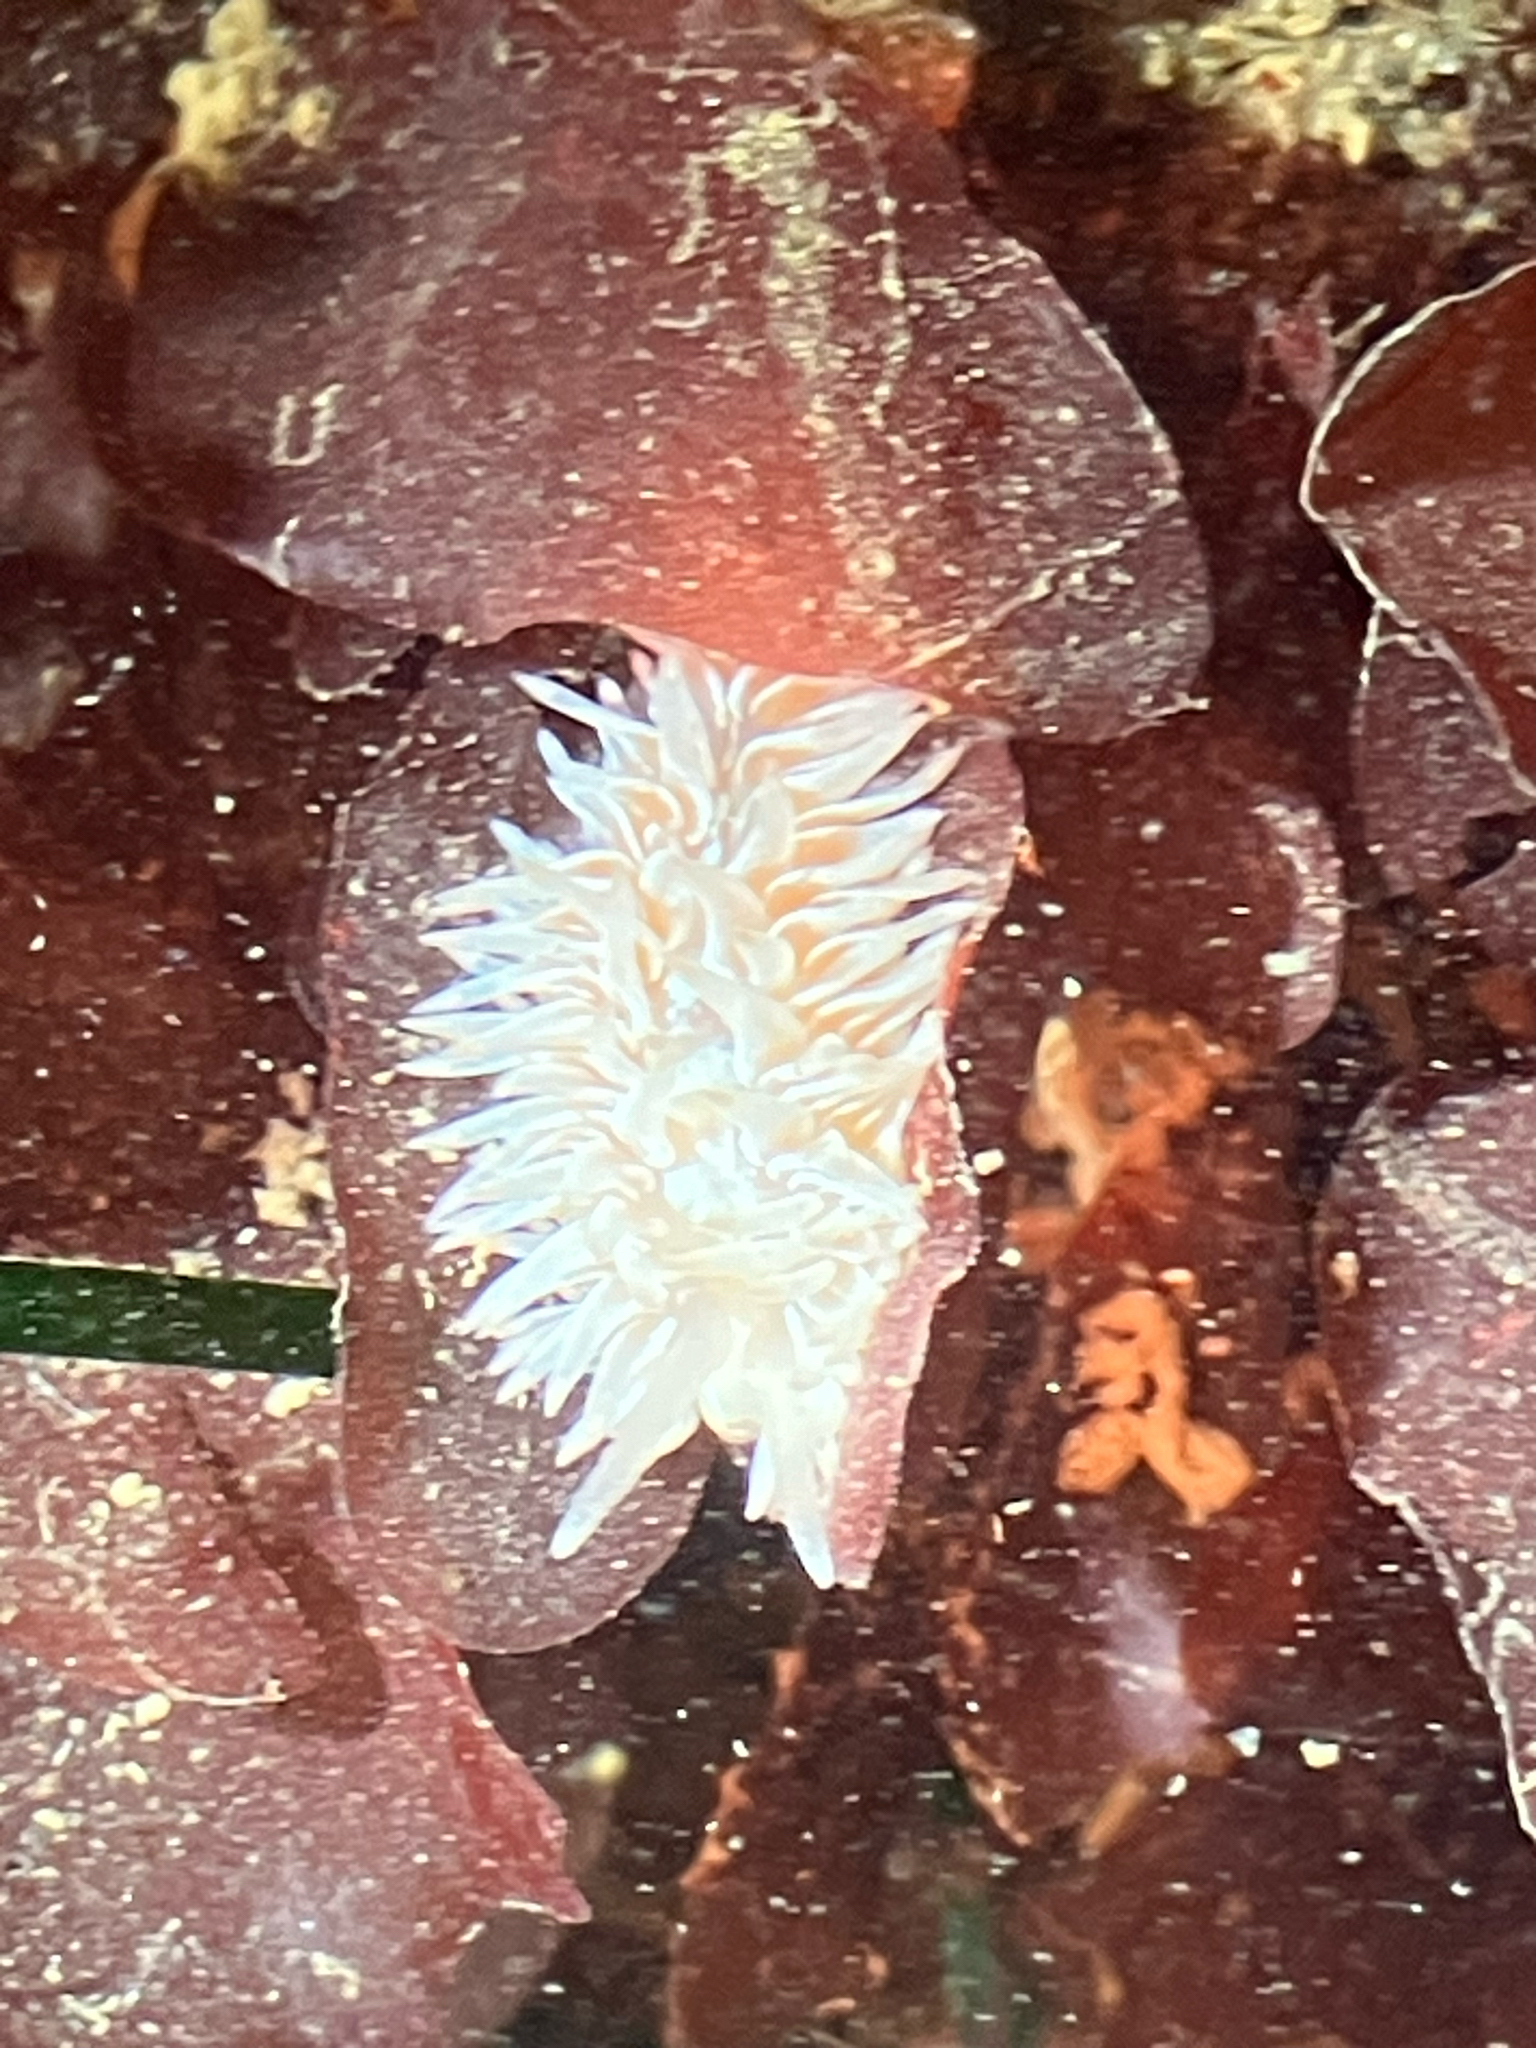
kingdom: Animalia
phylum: Mollusca
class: Gastropoda
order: Nudibranchia
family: Aeolidiidae
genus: Aeolidia
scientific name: Aeolidia loui
